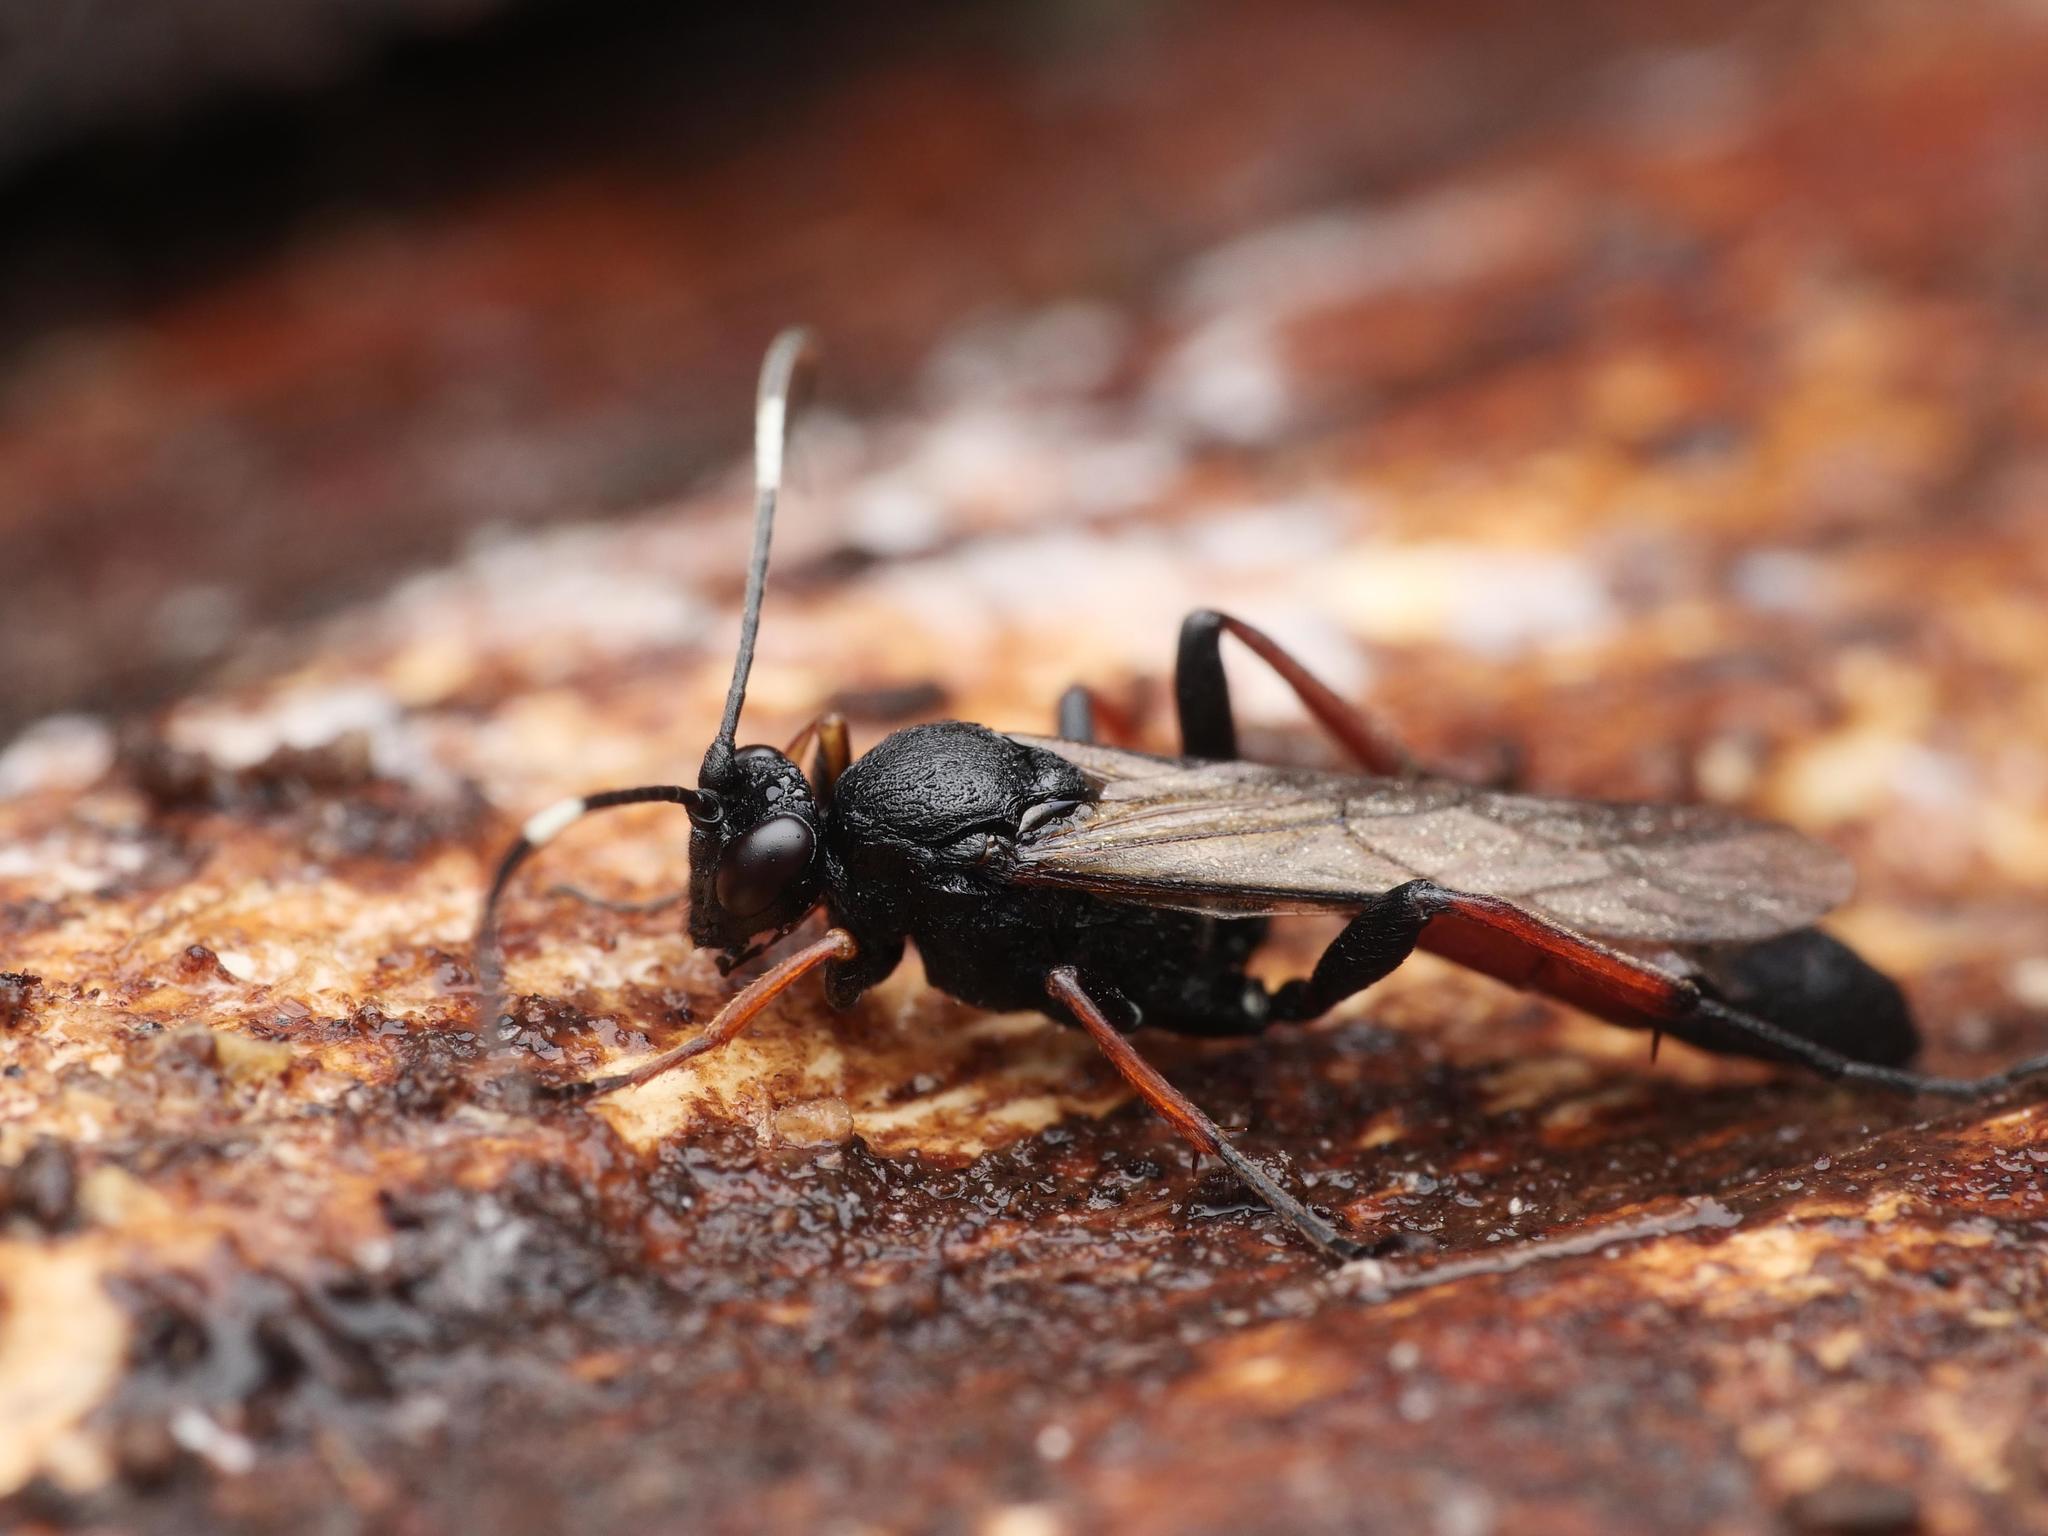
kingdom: Animalia
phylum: Arthropoda
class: Insecta
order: Hymenoptera
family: Ichneumonidae
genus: Stenichneumon
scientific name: Stenichneumon culpator
